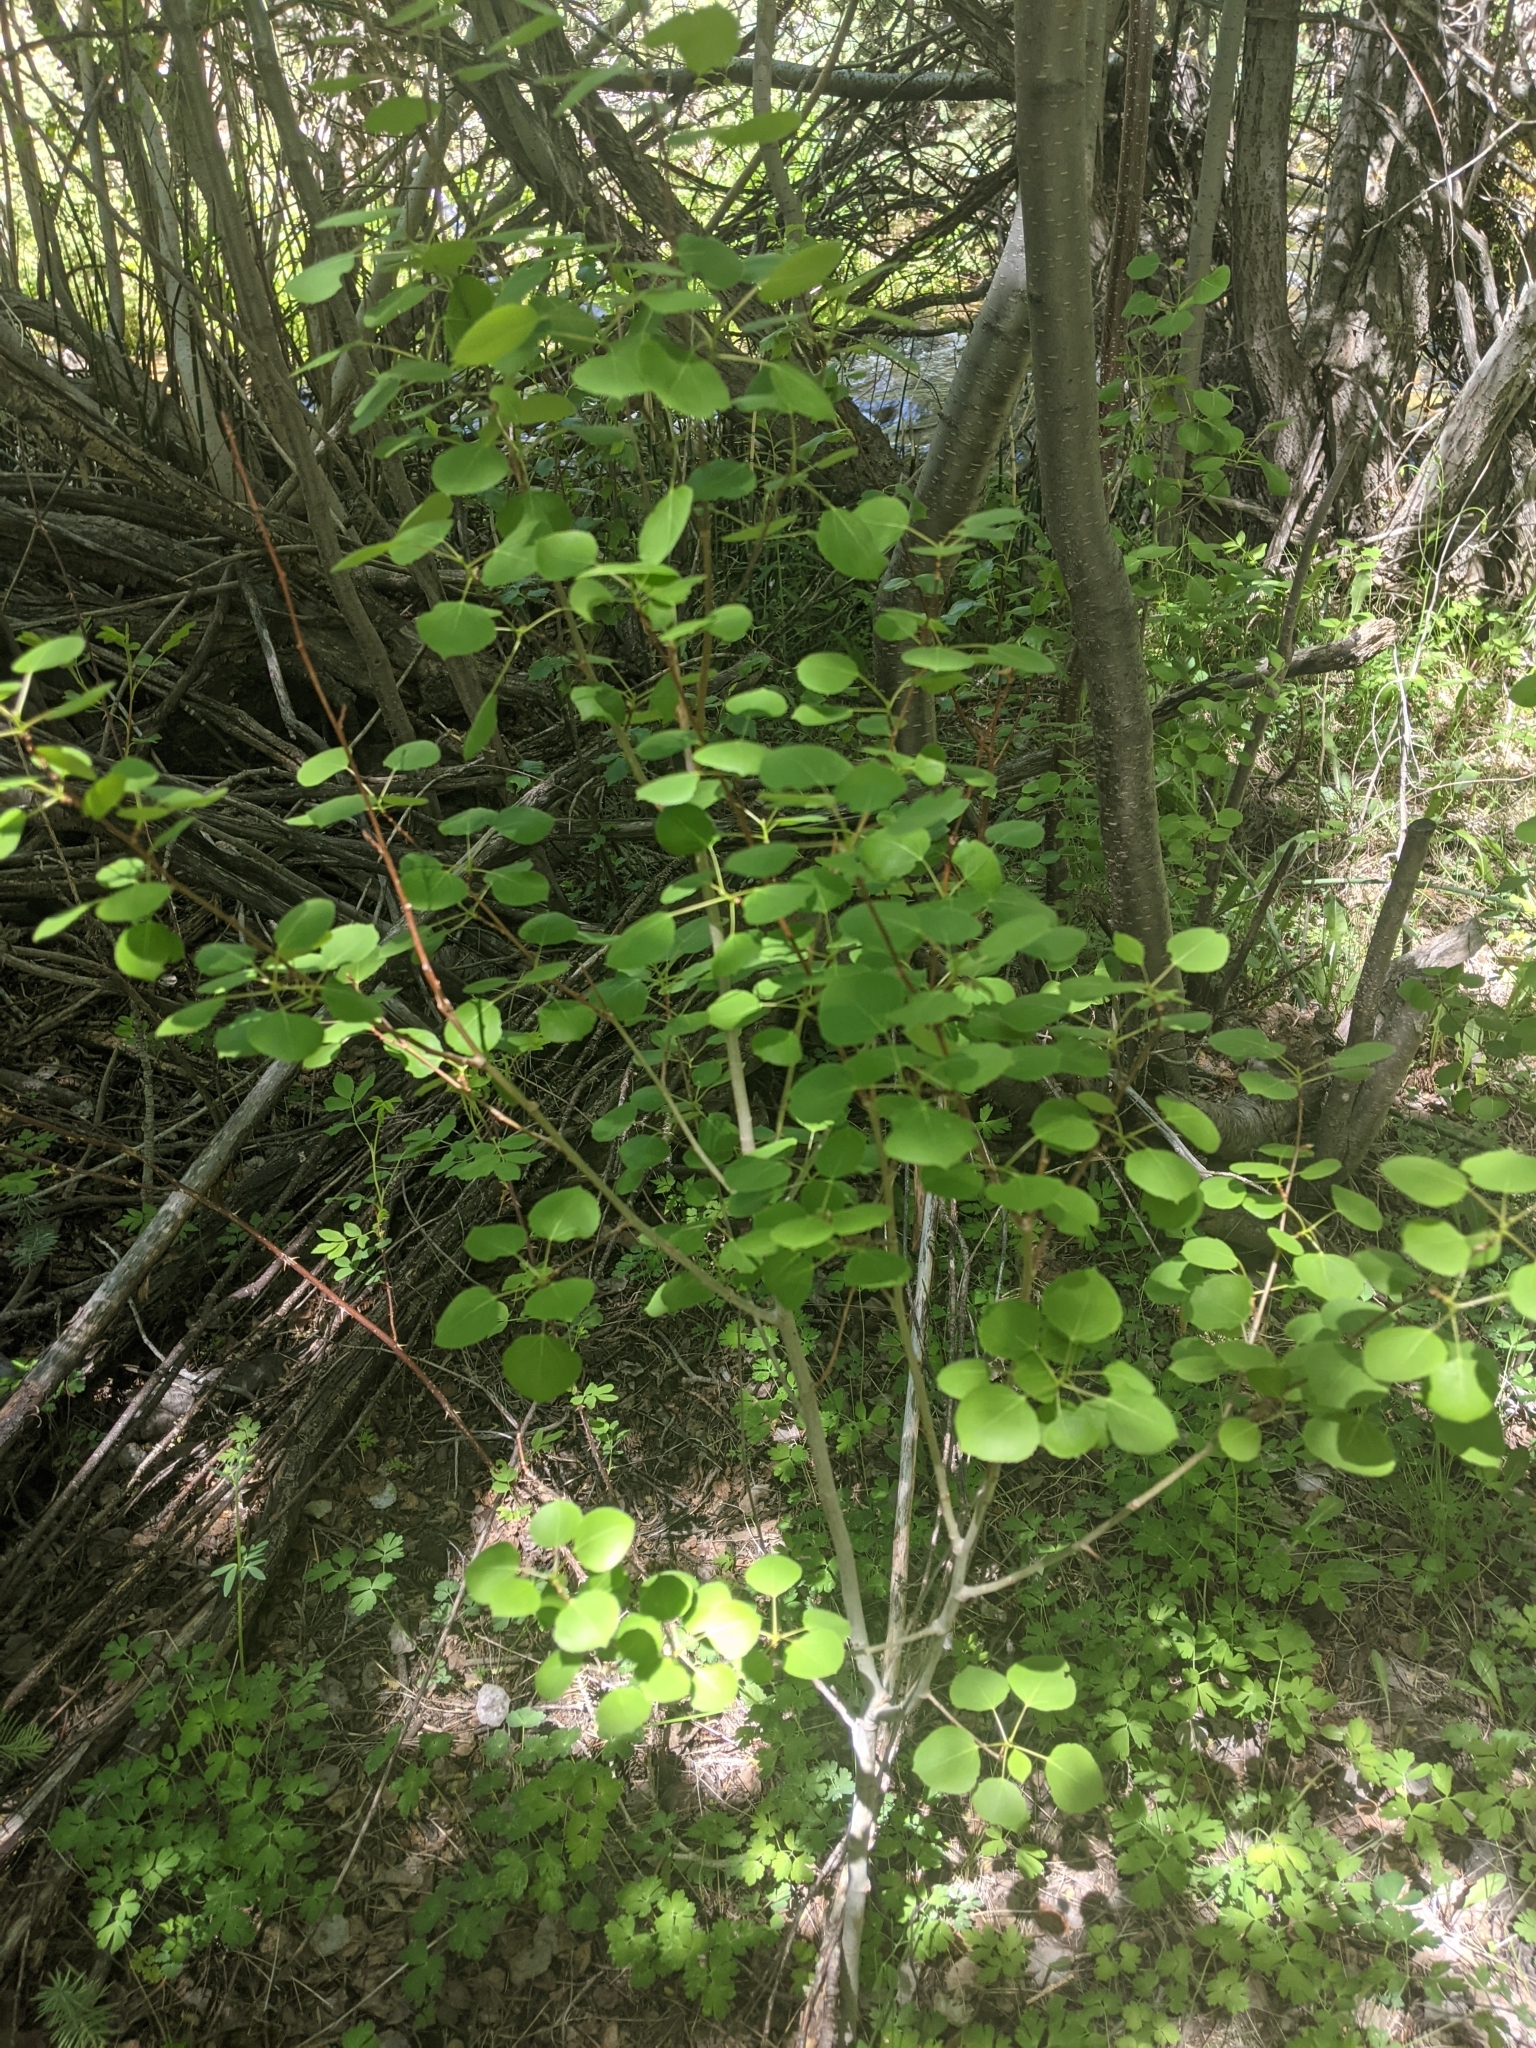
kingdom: Plantae
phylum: Tracheophyta
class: Magnoliopsida
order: Malpighiales
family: Salicaceae
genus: Populus
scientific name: Populus tremuloides
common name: Quaking aspen
